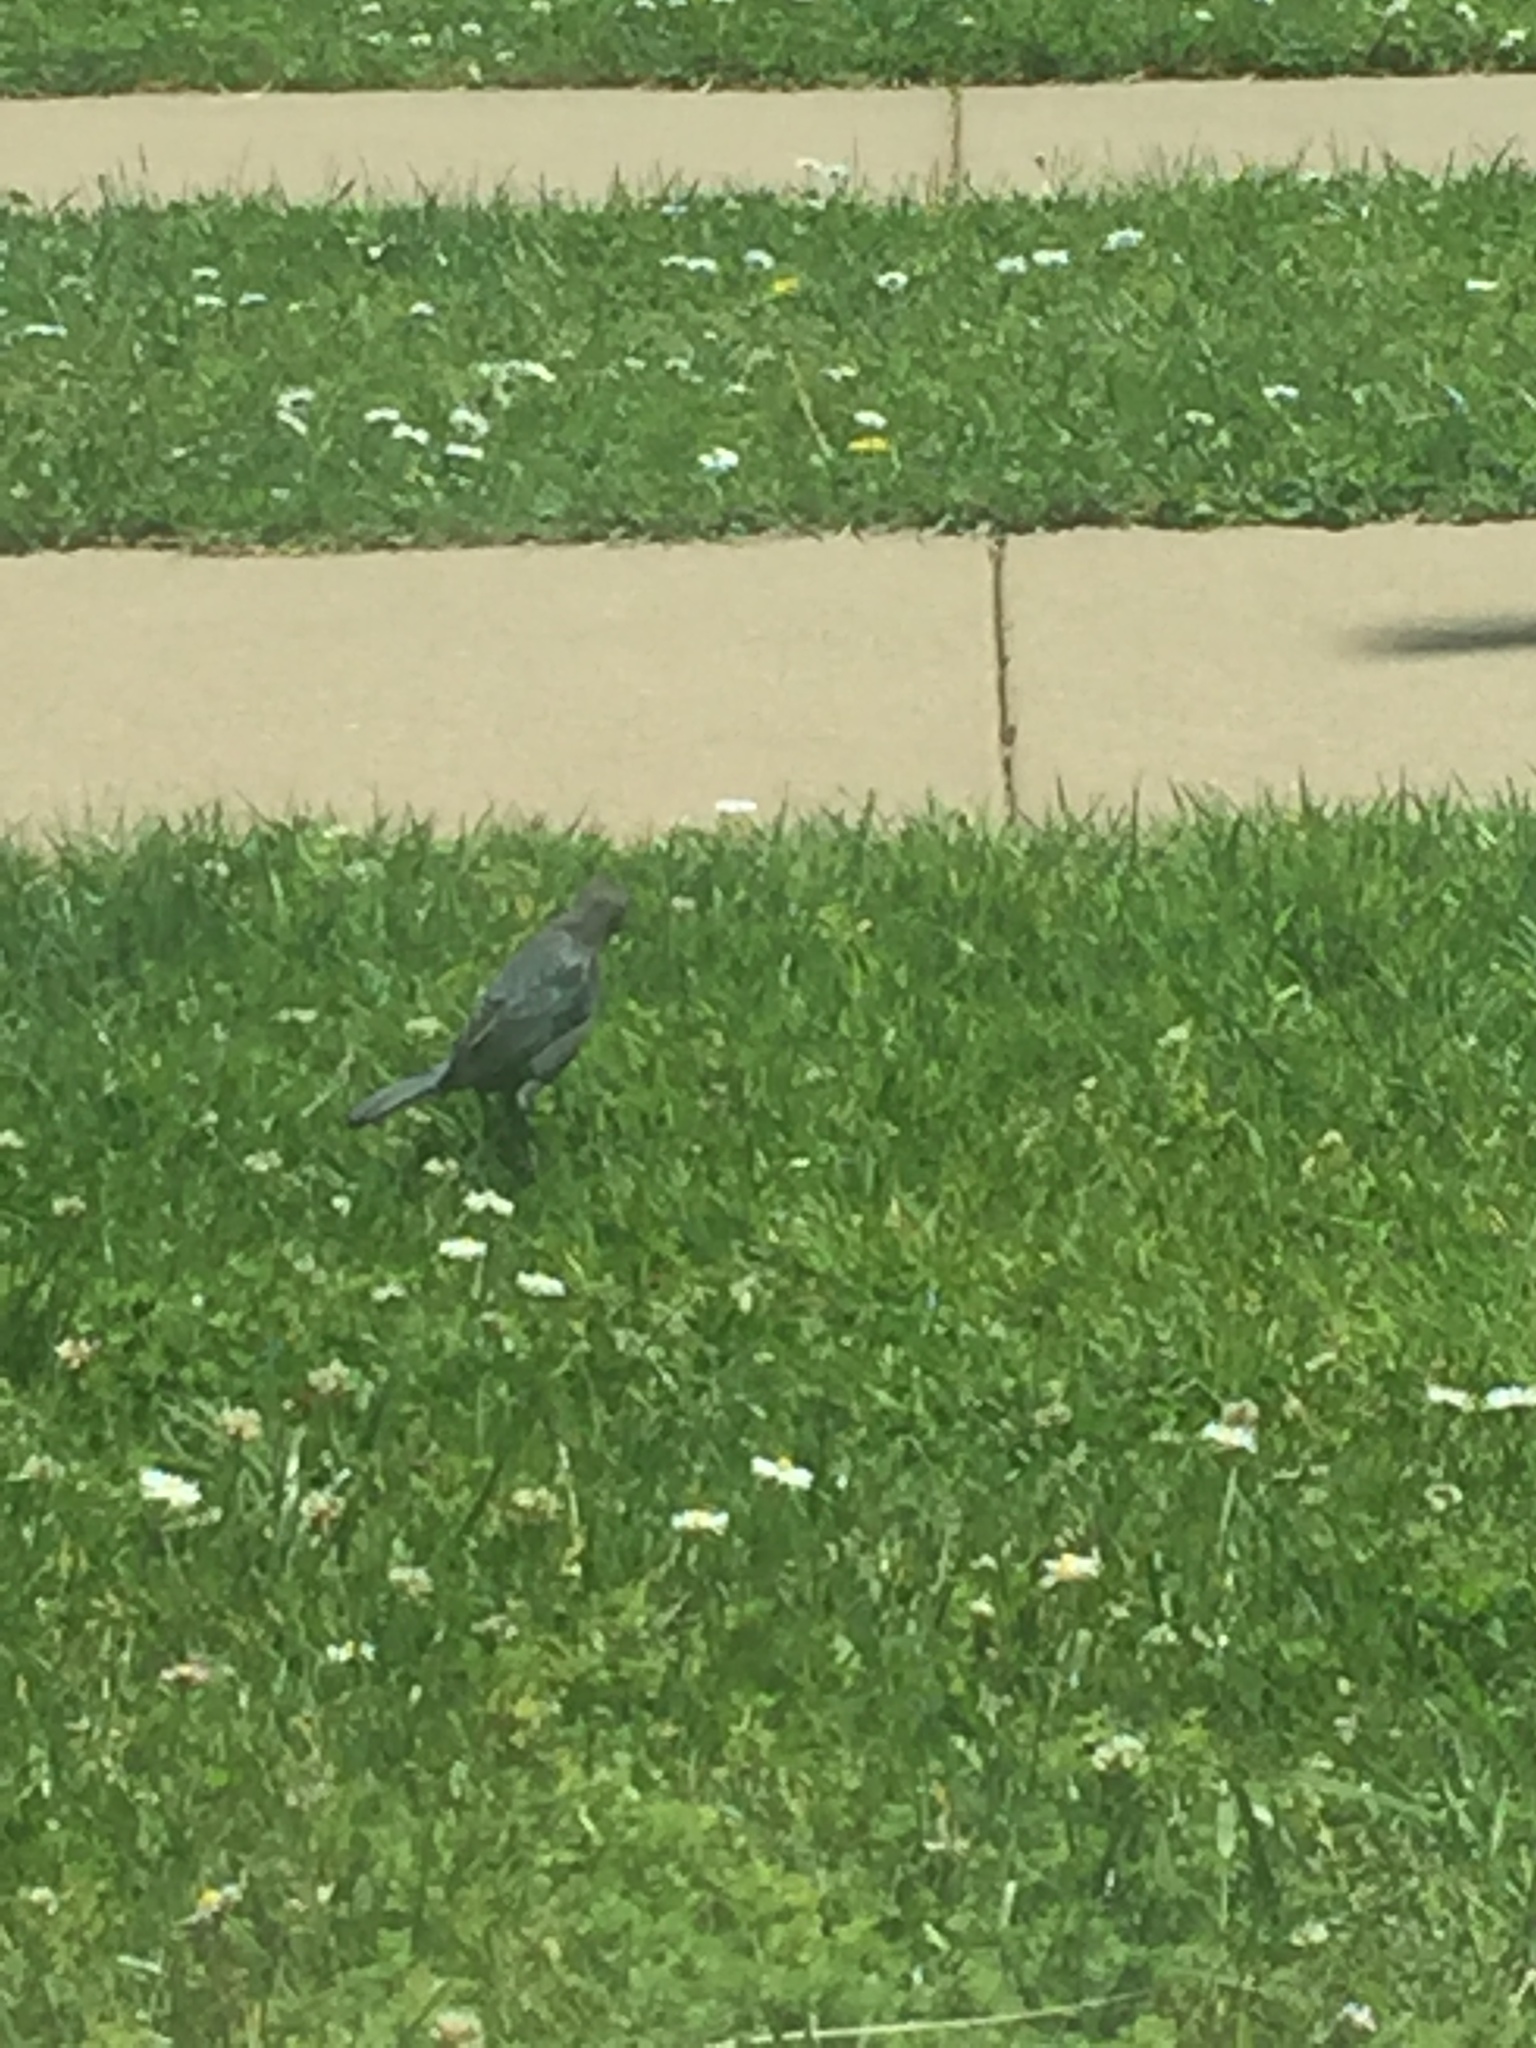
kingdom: Animalia
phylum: Chordata
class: Aves
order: Passeriformes
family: Icteridae
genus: Euphagus
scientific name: Euphagus cyanocephalus
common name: Brewer's blackbird
